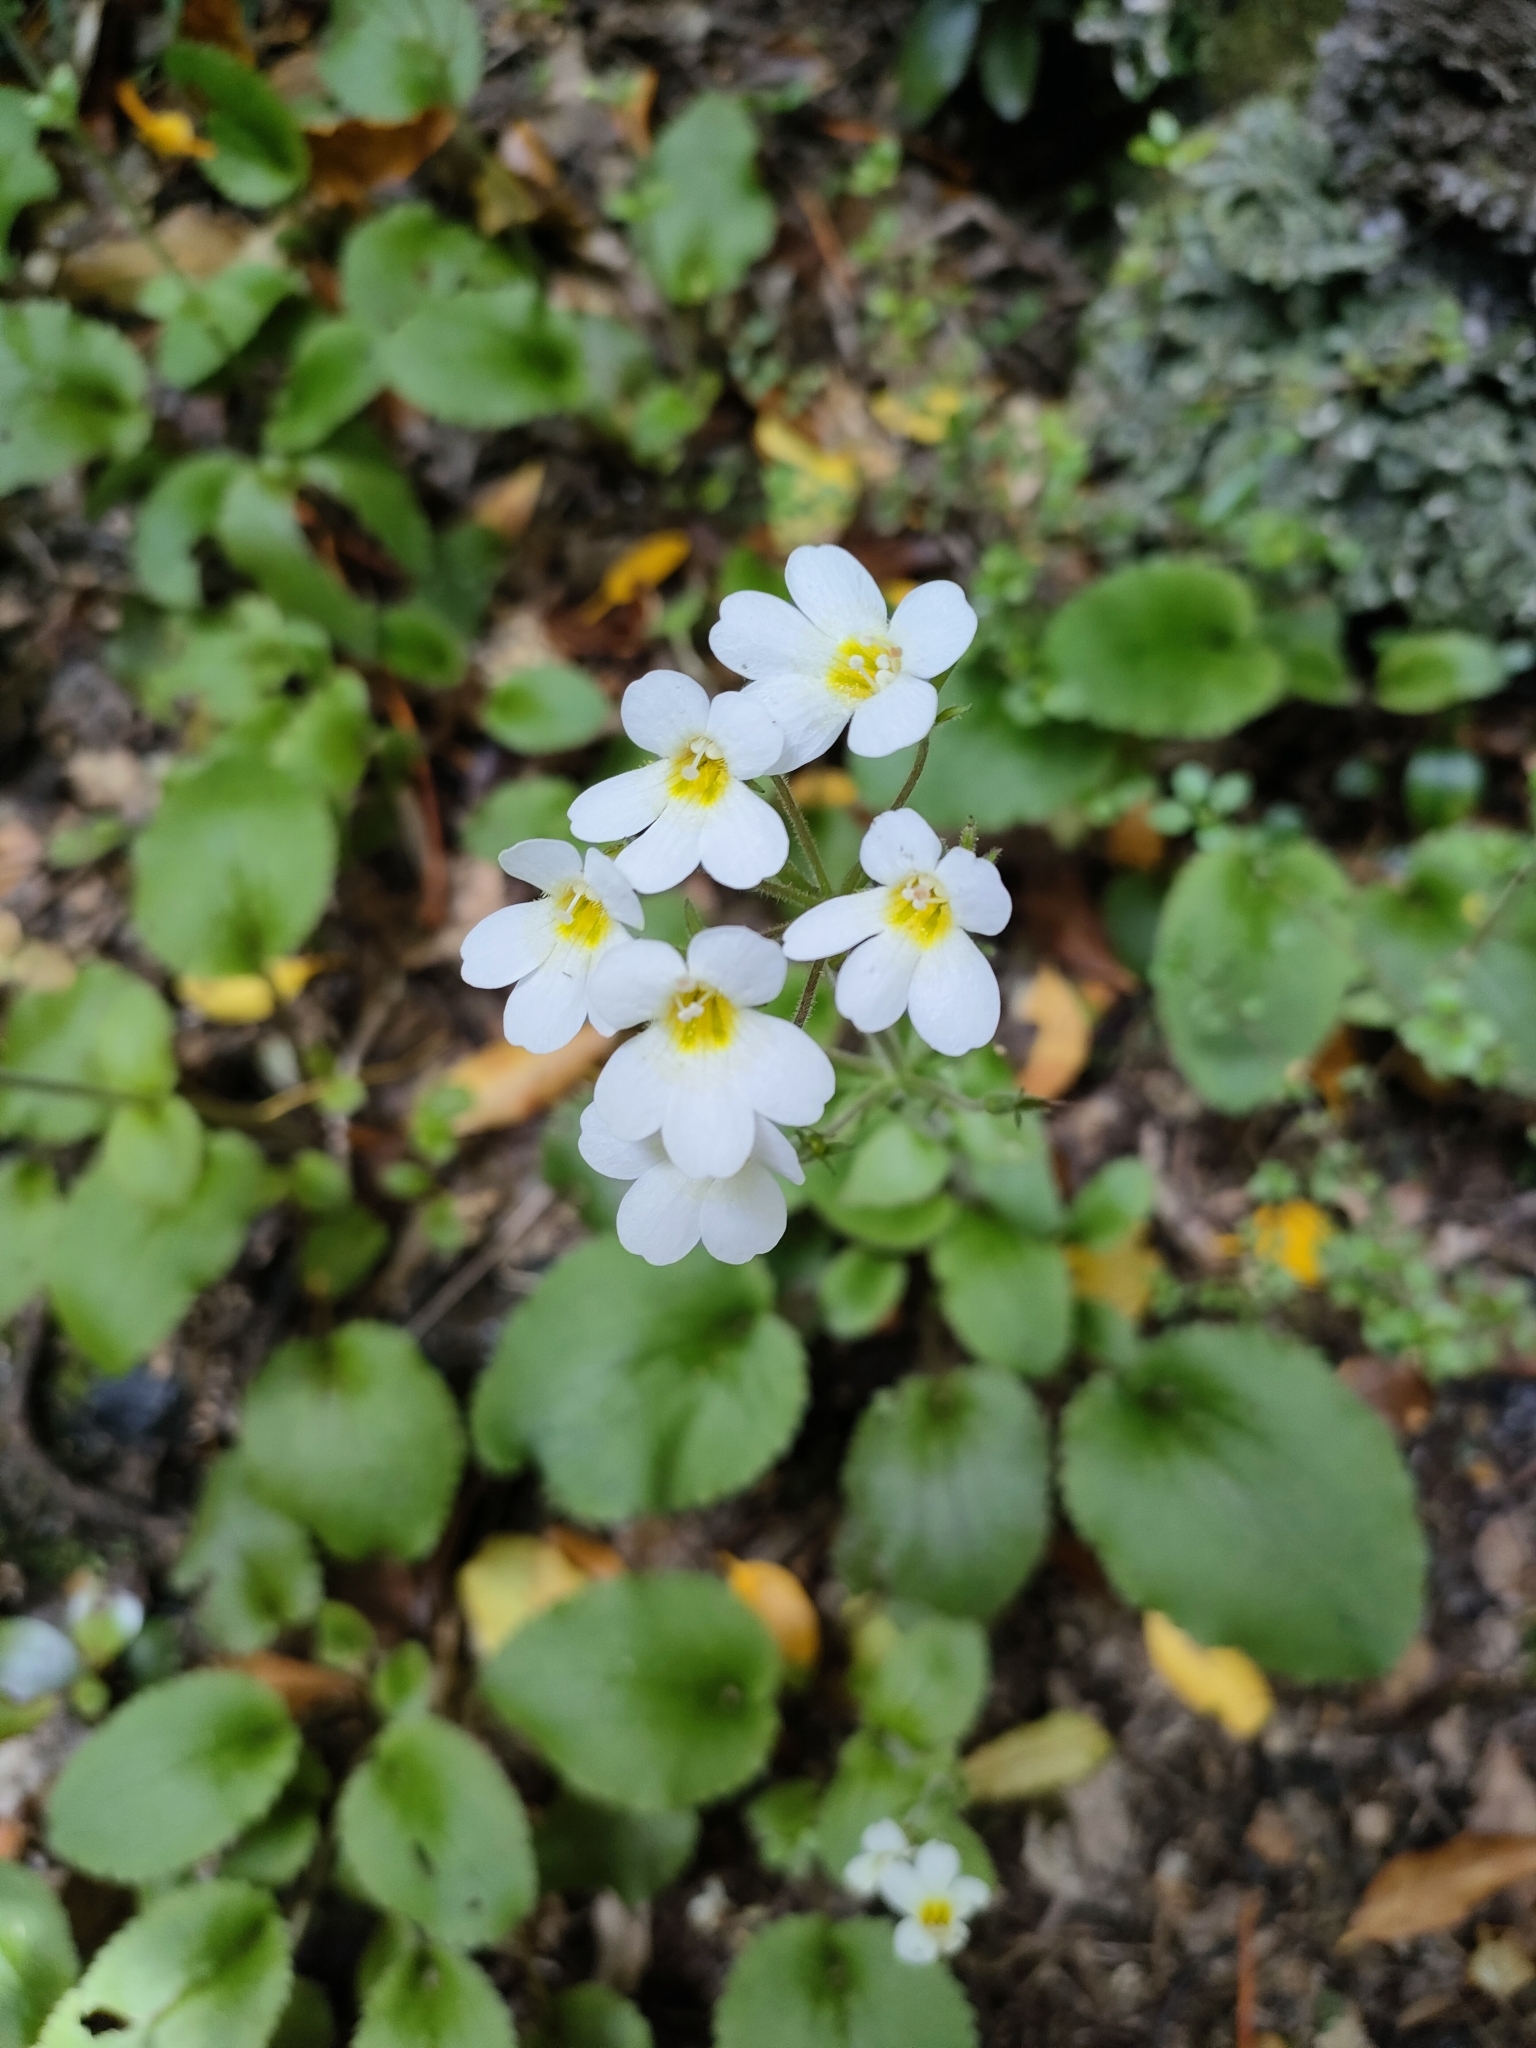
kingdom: Plantae
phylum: Tracheophyta
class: Magnoliopsida
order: Lamiales
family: Plantaginaceae
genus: Ourisia
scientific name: Ourisia macrophylla
